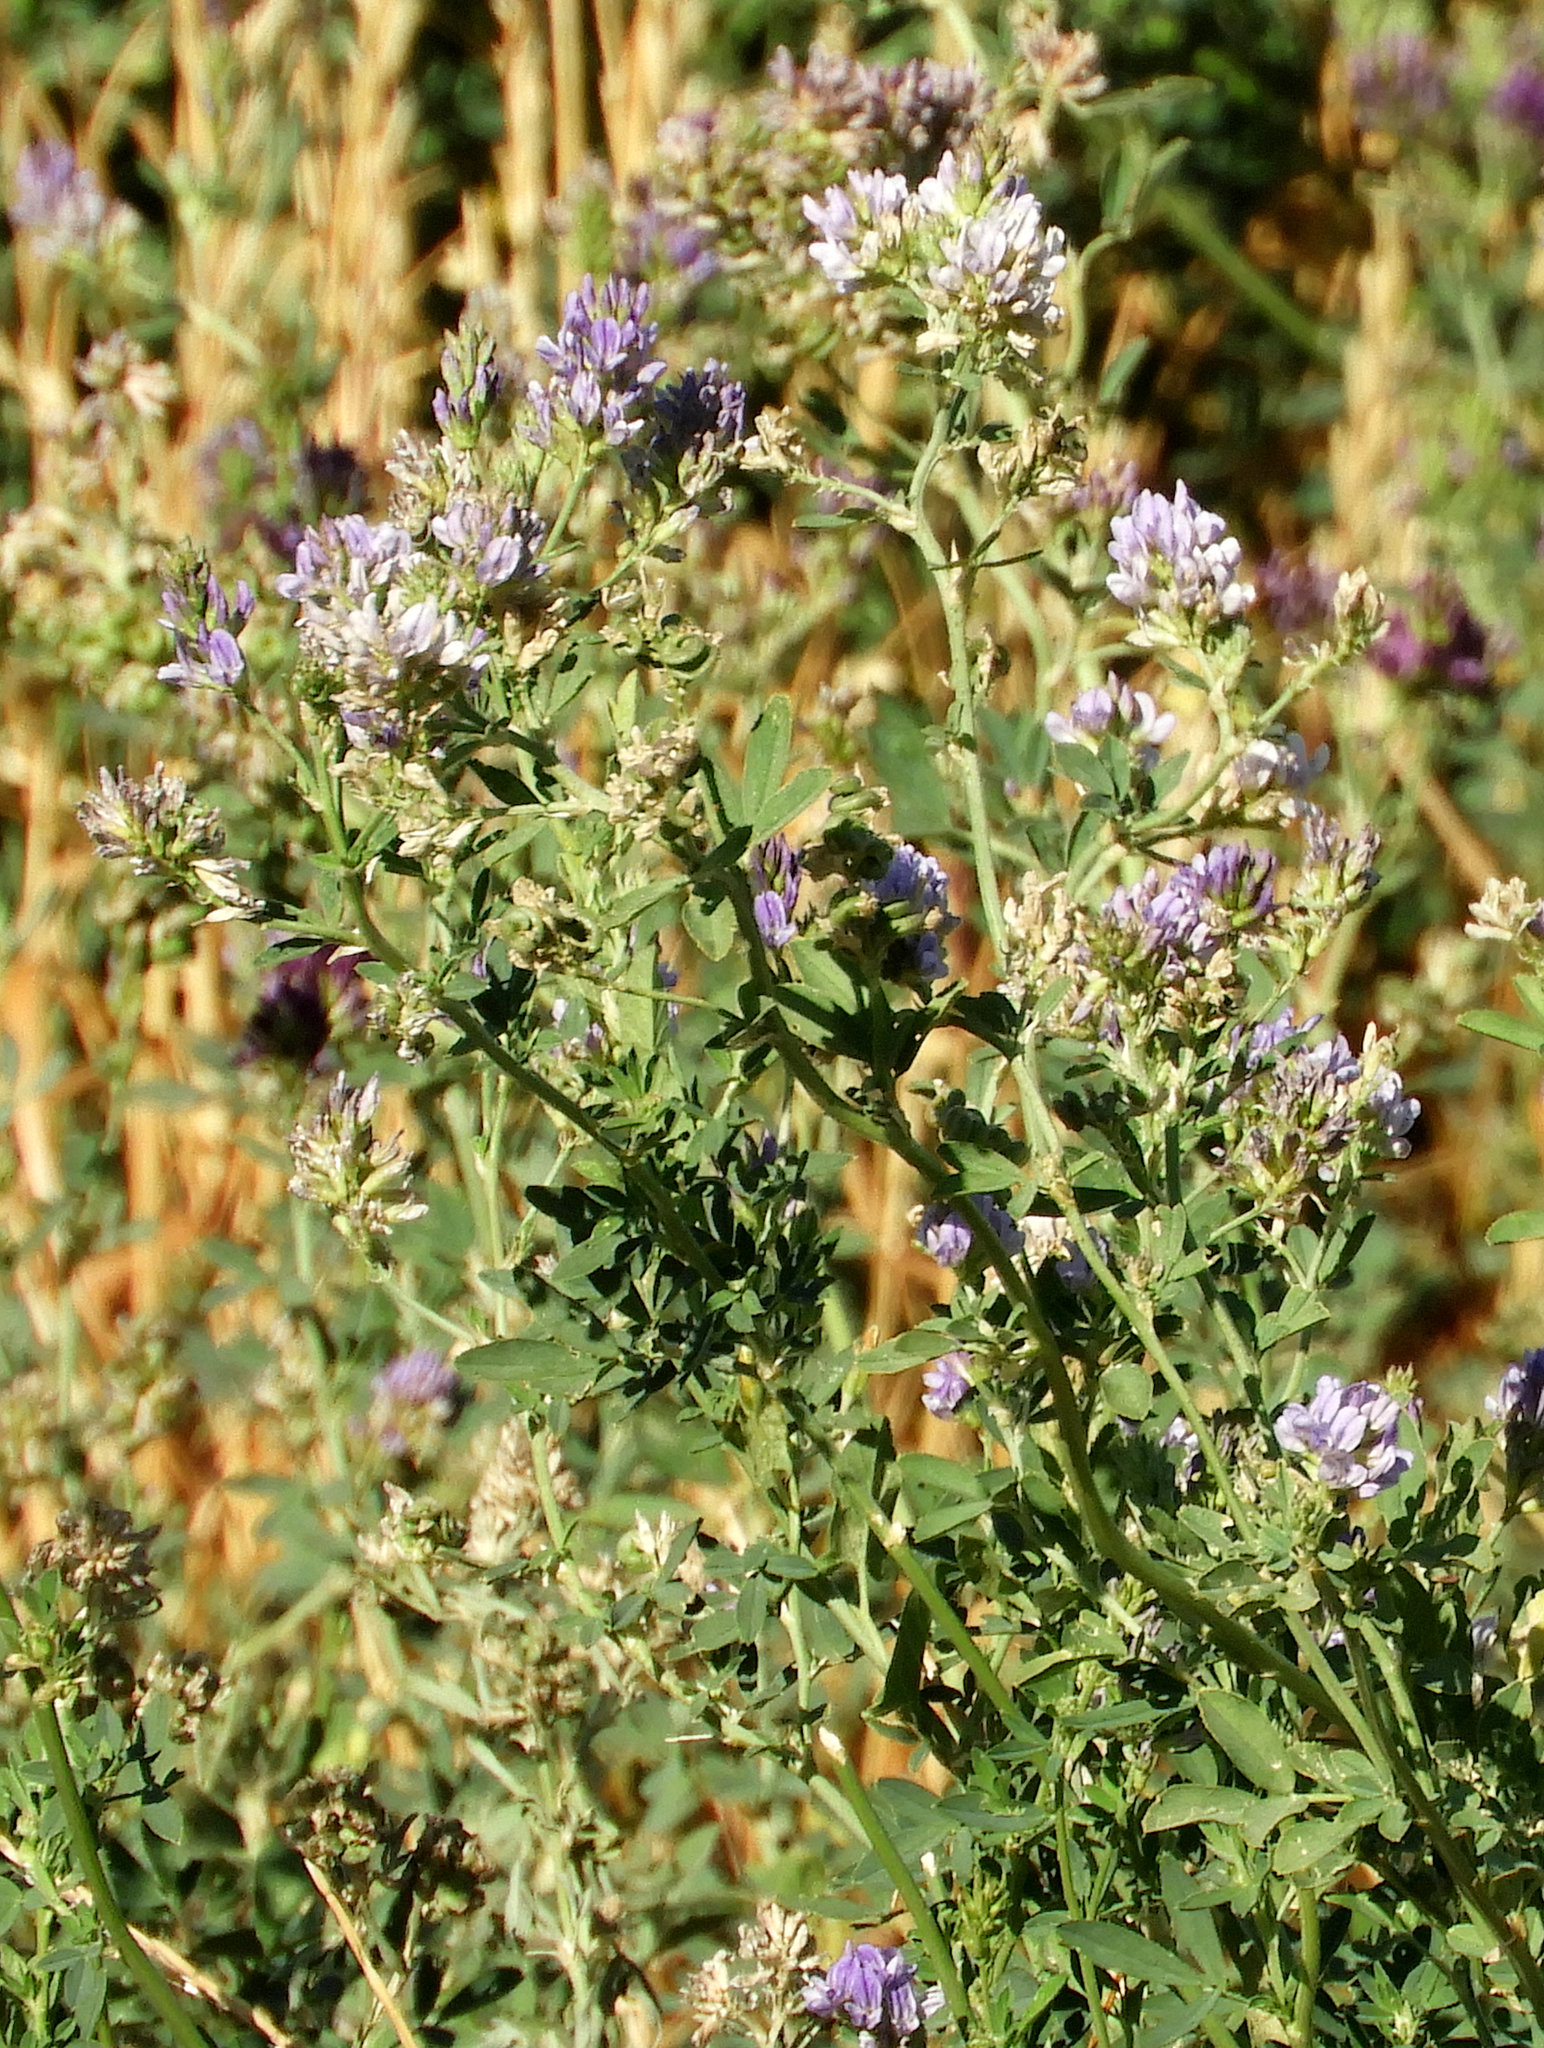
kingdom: Plantae
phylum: Tracheophyta
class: Magnoliopsida
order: Fabales
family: Fabaceae
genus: Medicago
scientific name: Medicago sativa
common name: Alfalfa
